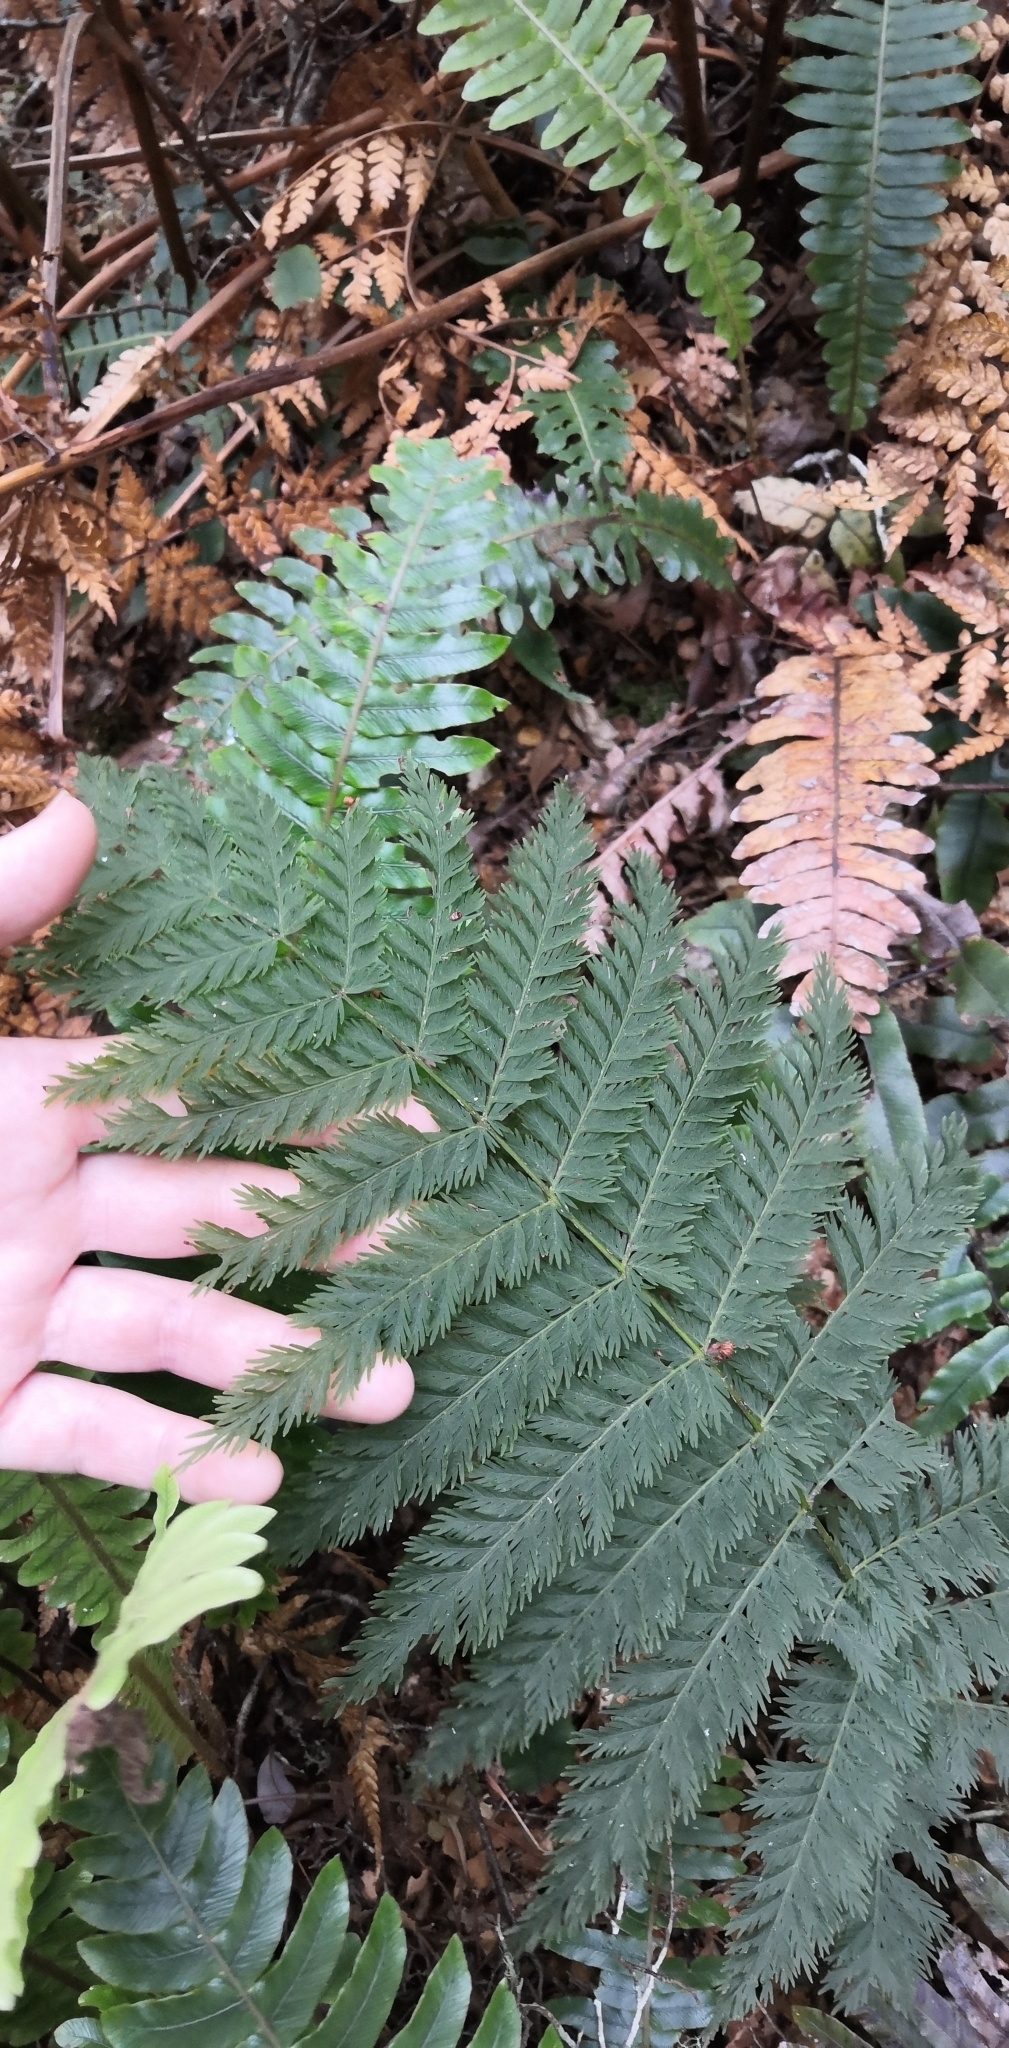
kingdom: Plantae
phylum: Tracheophyta
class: Polypodiopsida
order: Osmundales
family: Osmundaceae
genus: Leptopteris
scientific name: Leptopteris hymenophylloides
